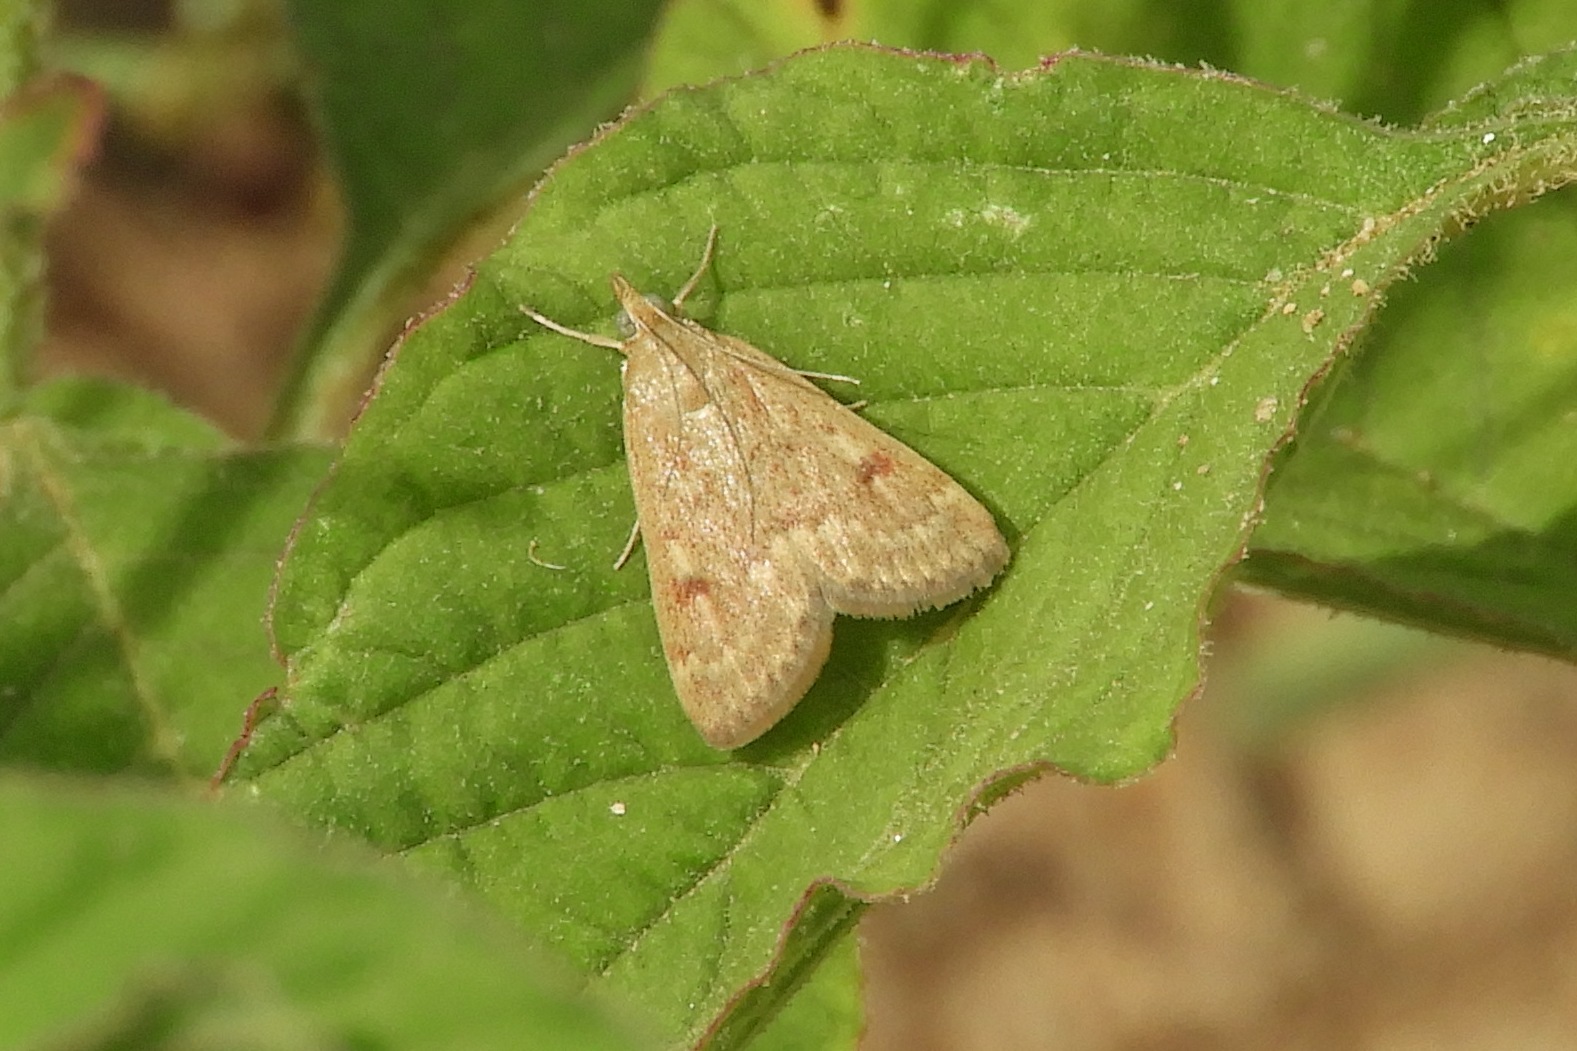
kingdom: Animalia
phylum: Arthropoda
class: Insecta
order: Lepidoptera
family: Crambidae
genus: Achyra
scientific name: Achyra rantalis
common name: Garden webworm
